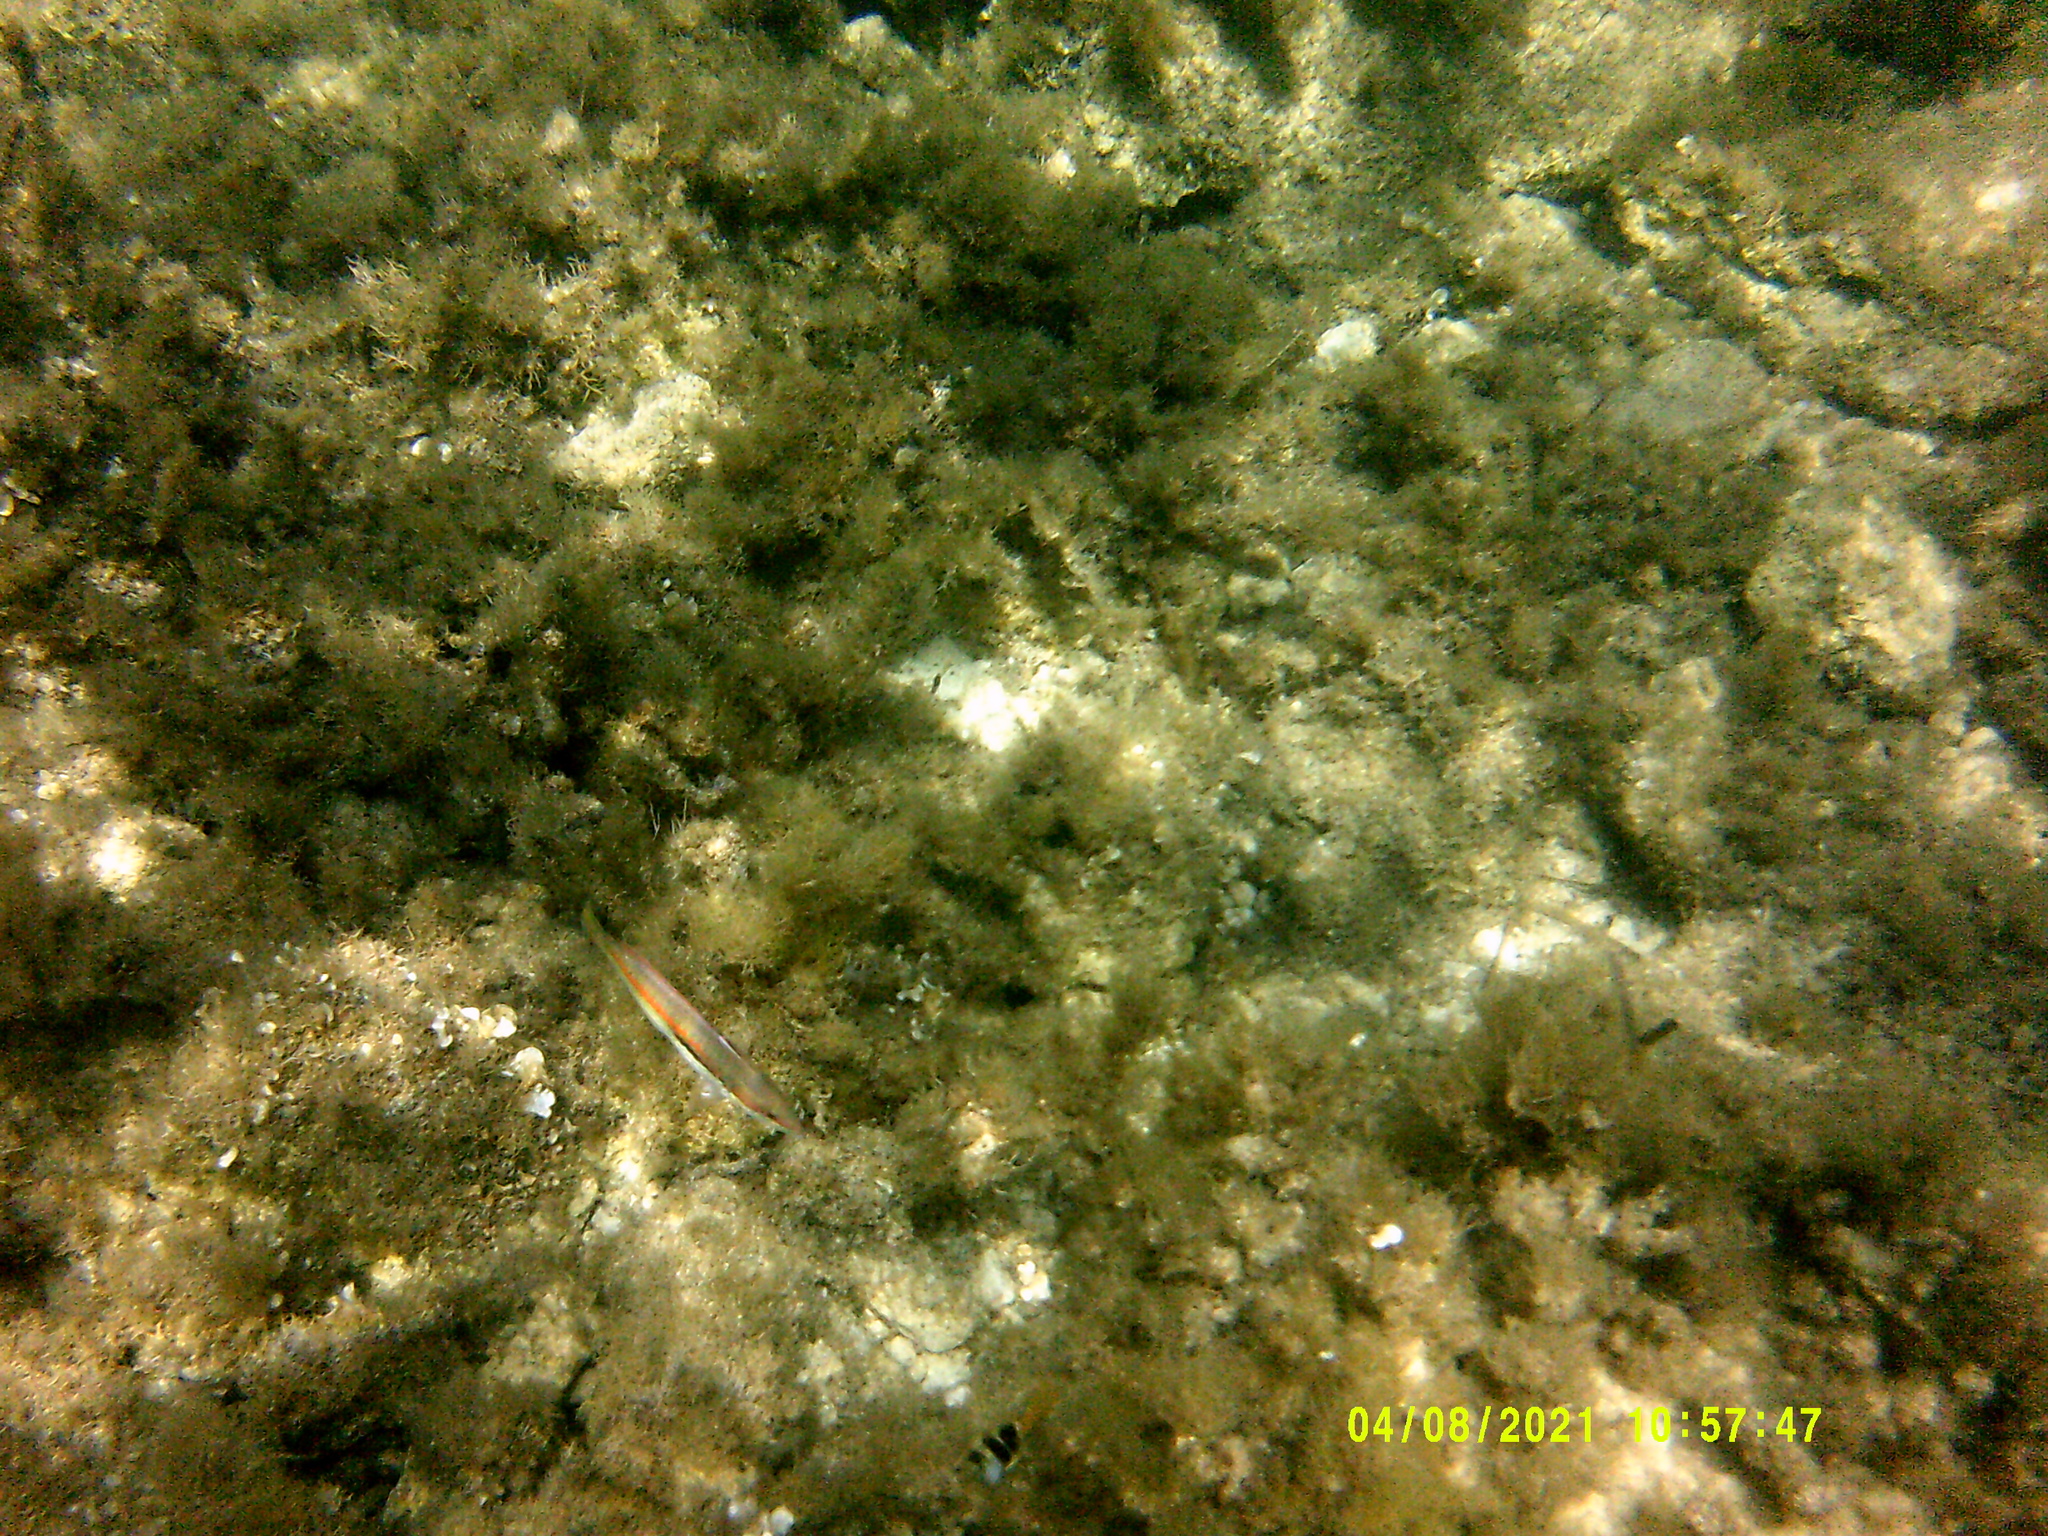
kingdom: Animalia
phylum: Chordata
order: Perciformes
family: Labridae
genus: Coris
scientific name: Coris julis
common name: Rainbow wrasse
